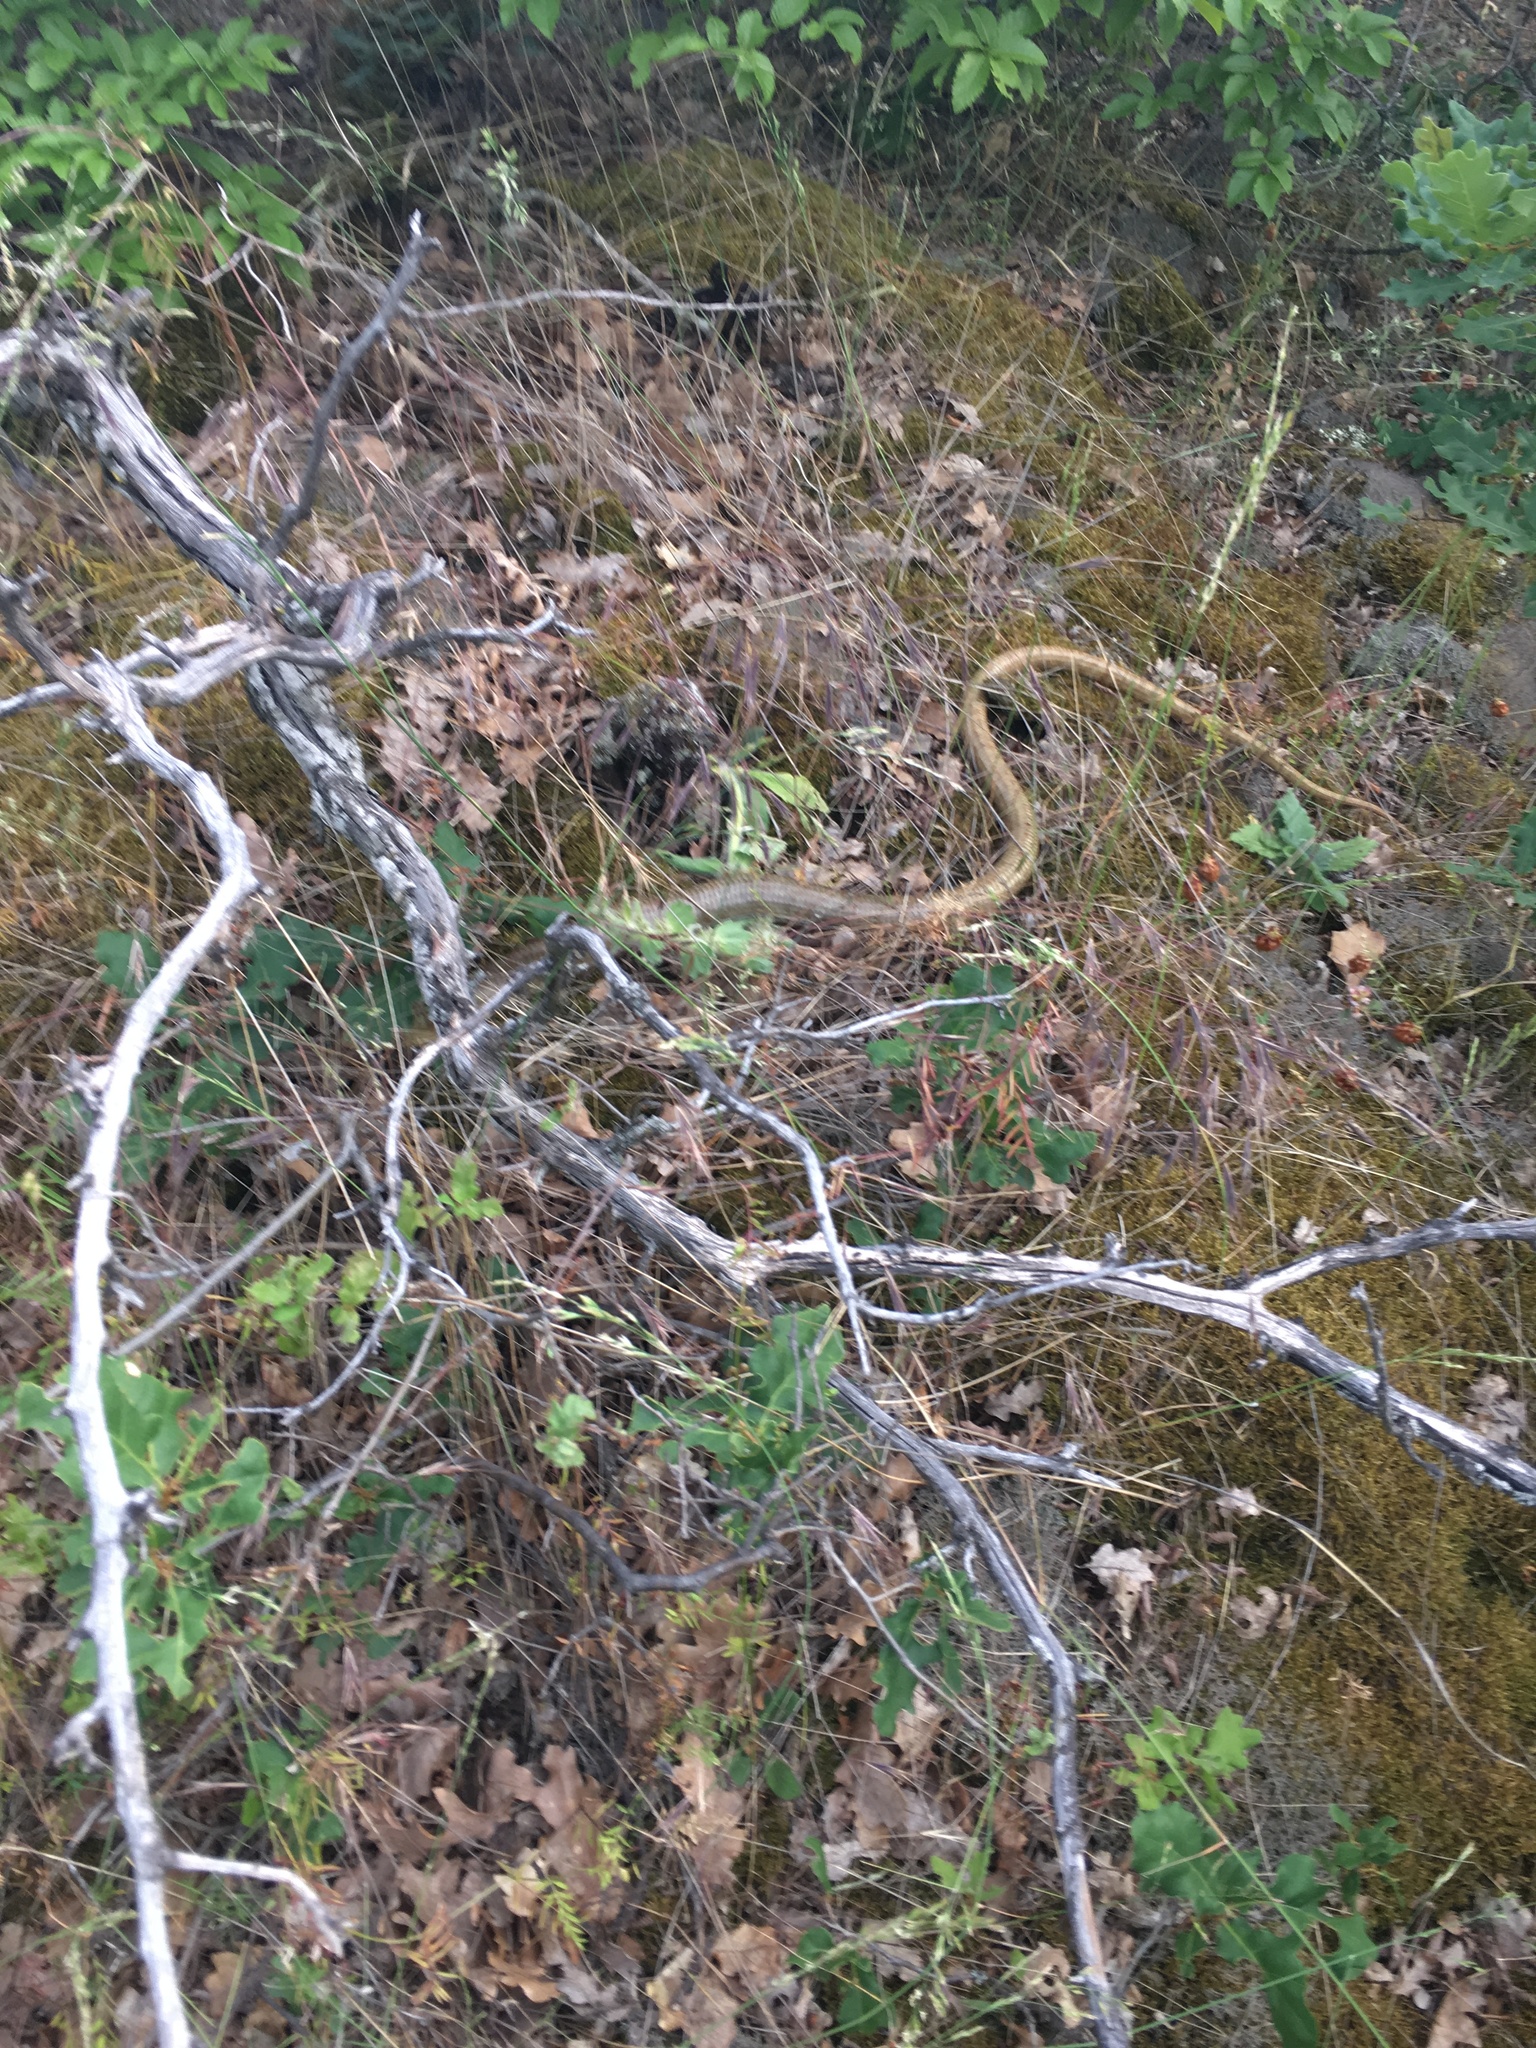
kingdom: Animalia
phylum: Chordata
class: Squamata
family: Anguidae
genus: Pseudopus
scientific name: Pseudopus apodus
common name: European glass lizard
